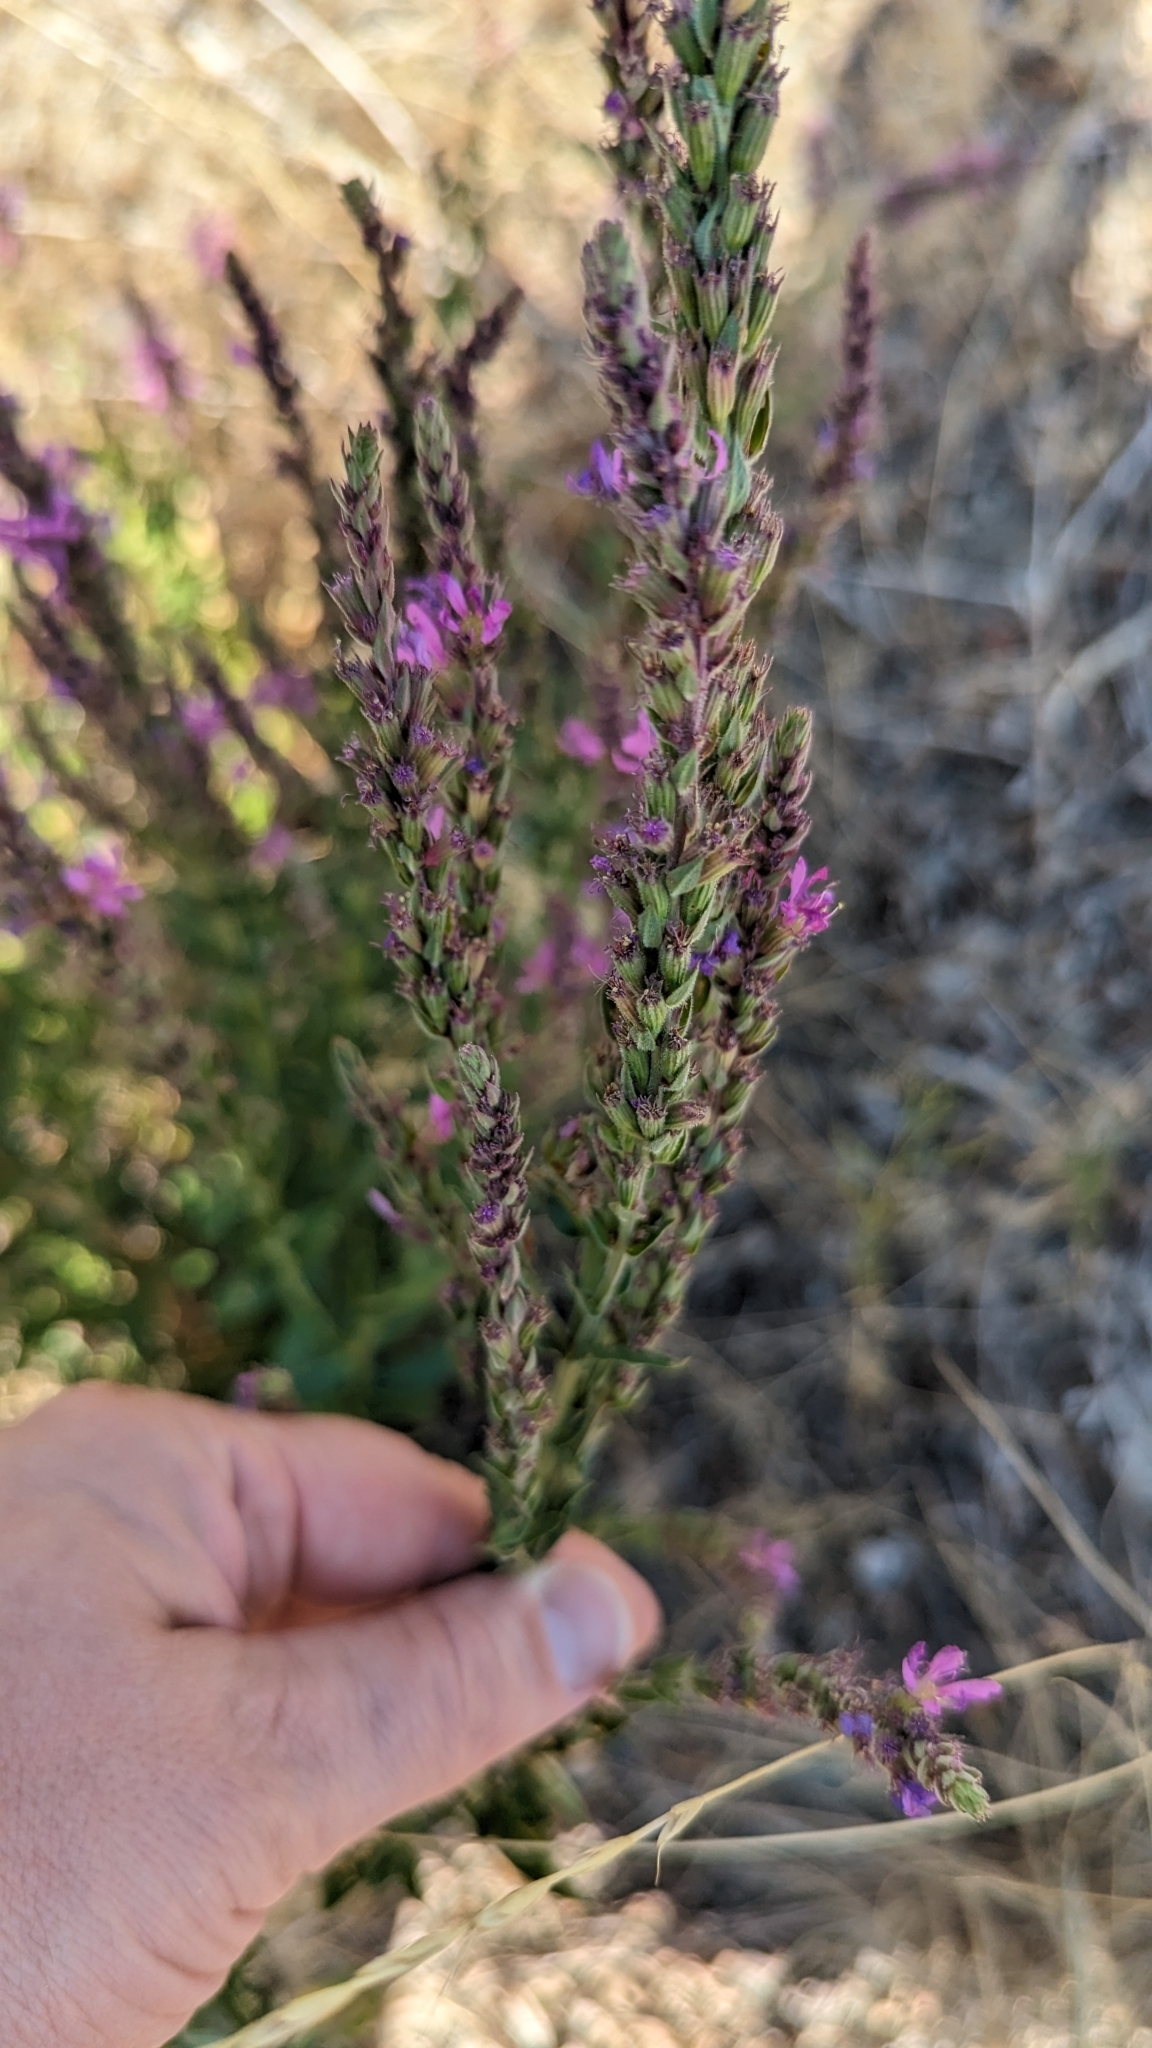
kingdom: Plantae
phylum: Tracheophyta
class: Magnoliopsida
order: Myrtales
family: Lythraceae
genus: Lythrum
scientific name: Lythrum salicaria
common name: Purple loosestrife
